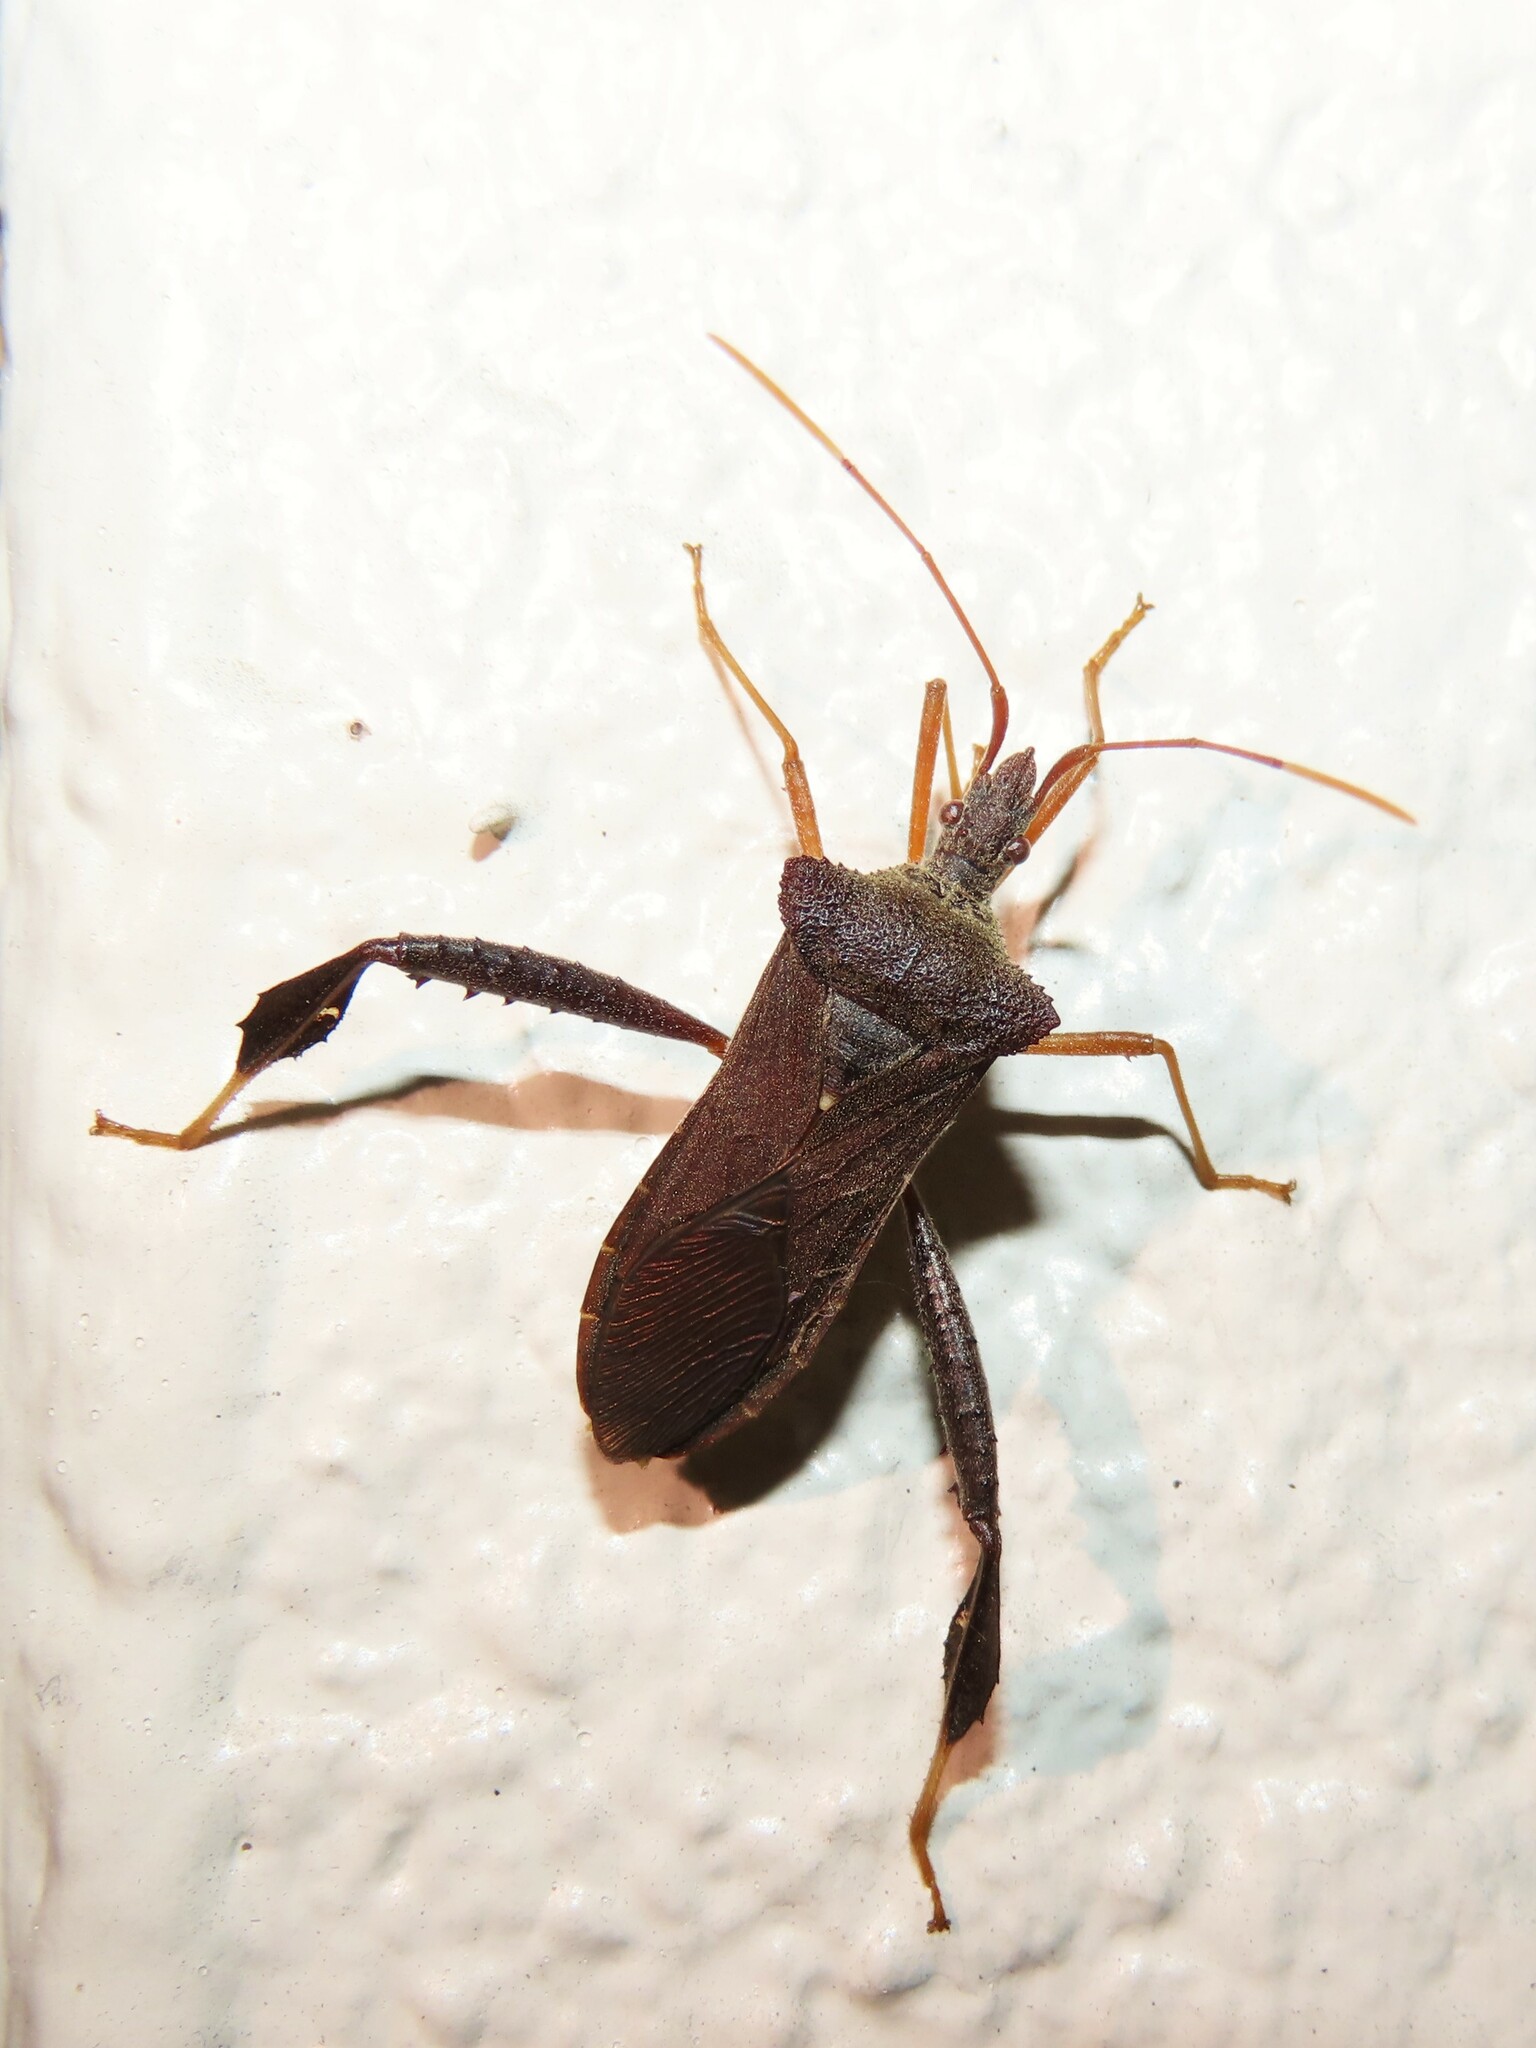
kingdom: Animalia
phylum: Arthropoda
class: Insecta
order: Hemiptera
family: Coreidae
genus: Leptoglossus
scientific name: Leptoglossus fulvicornis
